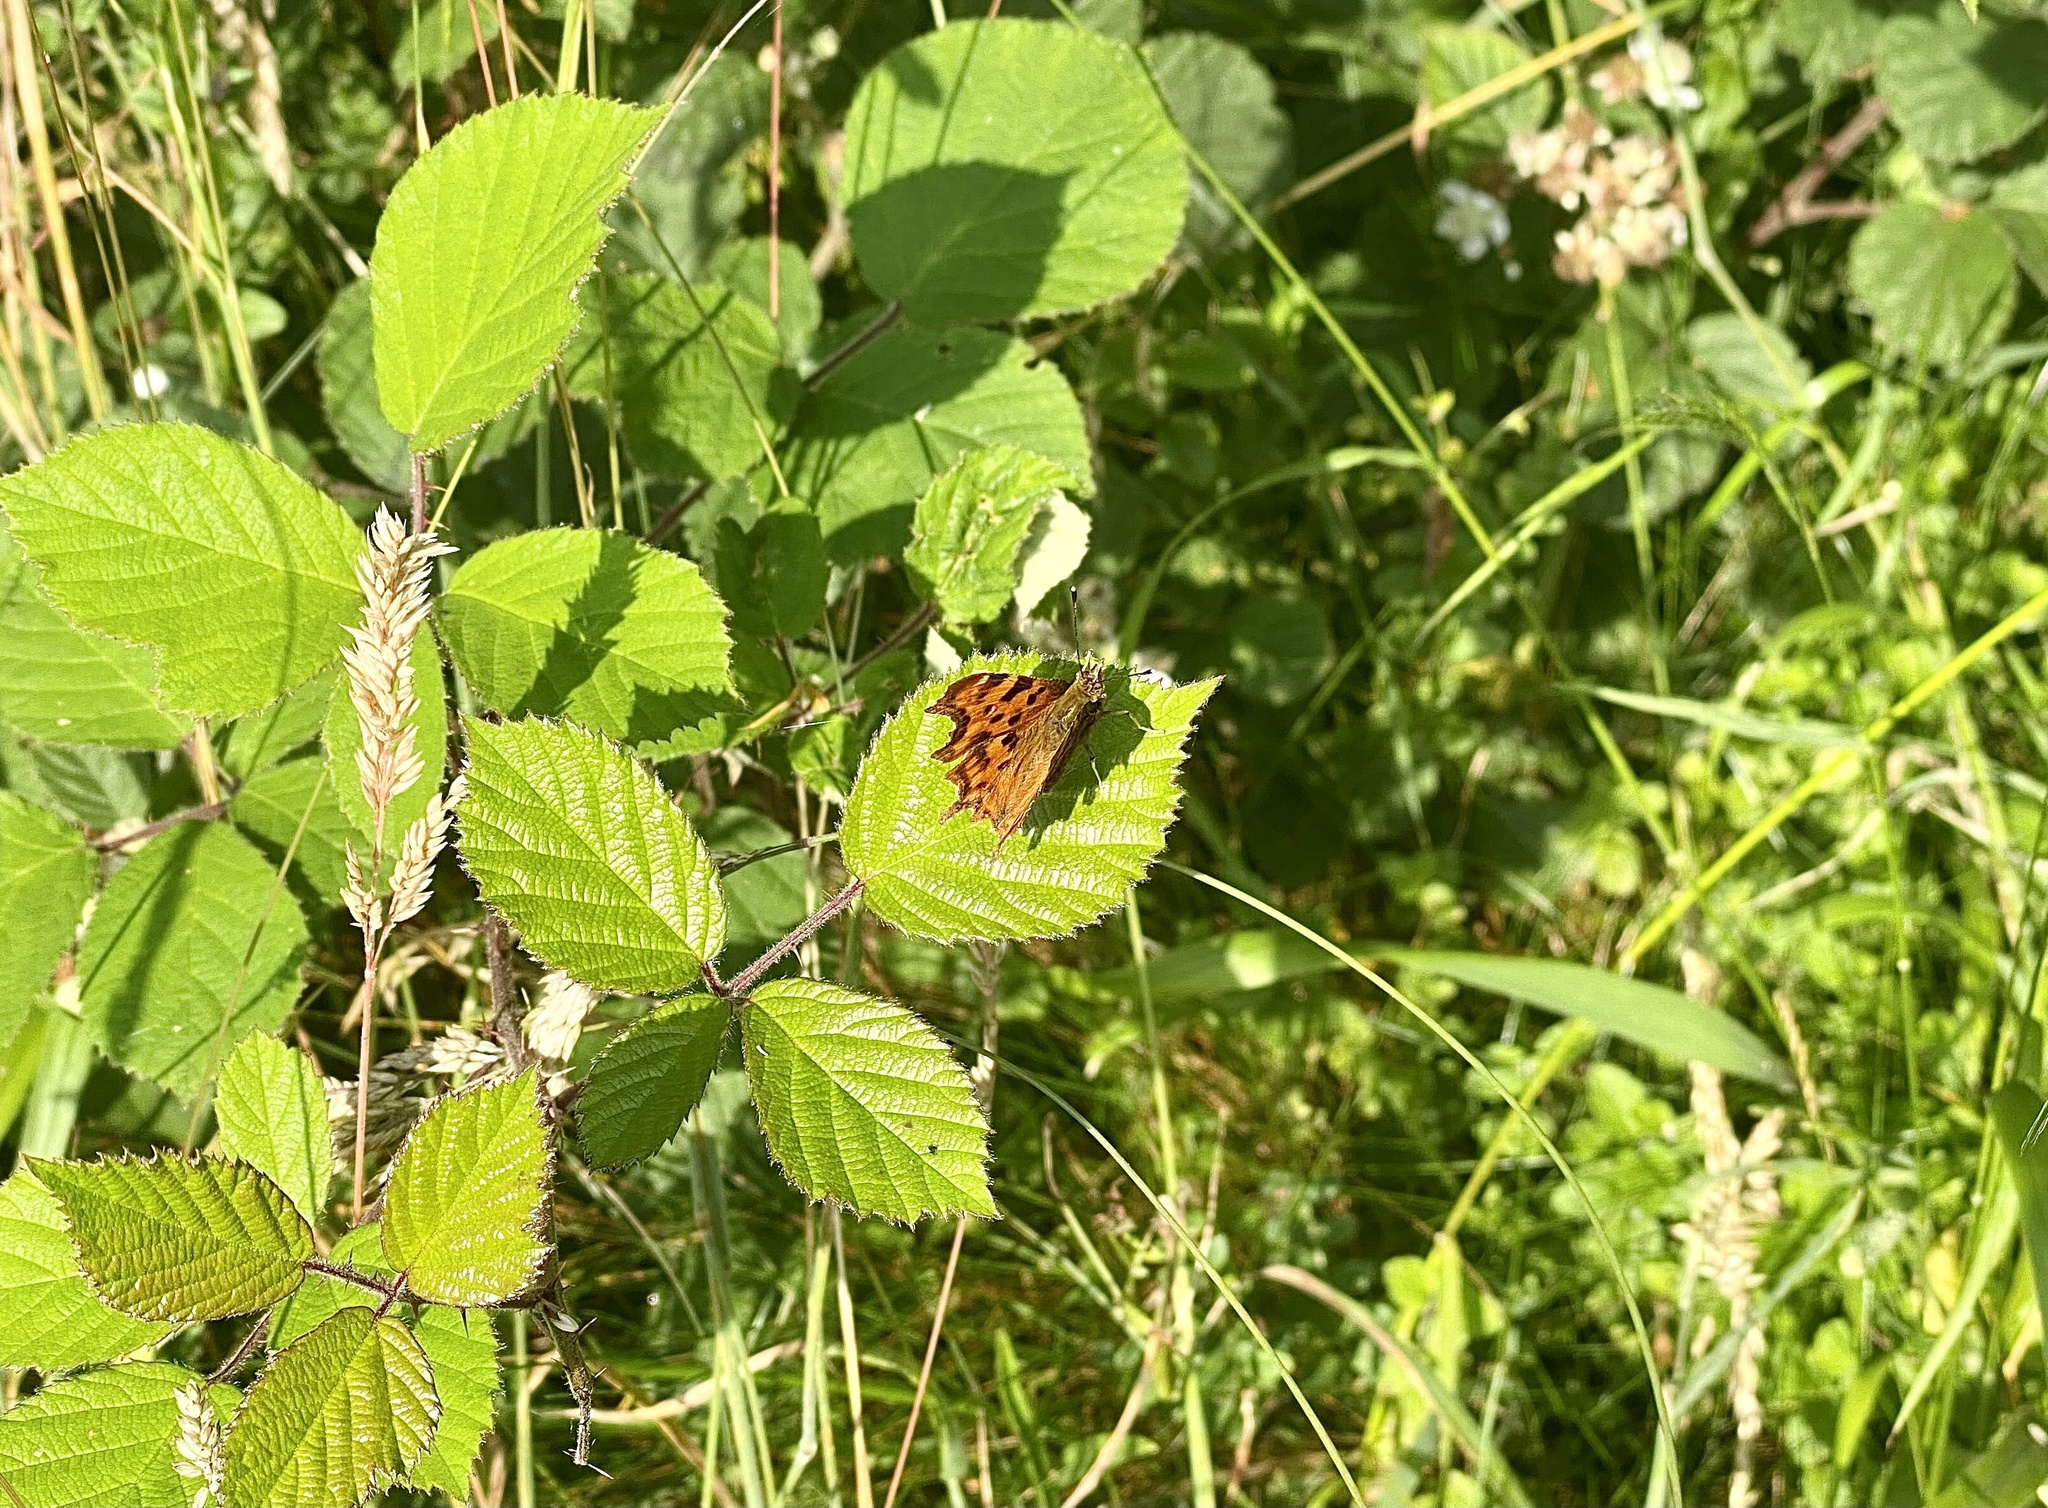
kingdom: Animalia
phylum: Arthropoda
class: Insecta
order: Lepidoptera
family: Nymphalidae
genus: Polygonia
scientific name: Polygonia c-album
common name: Comma
